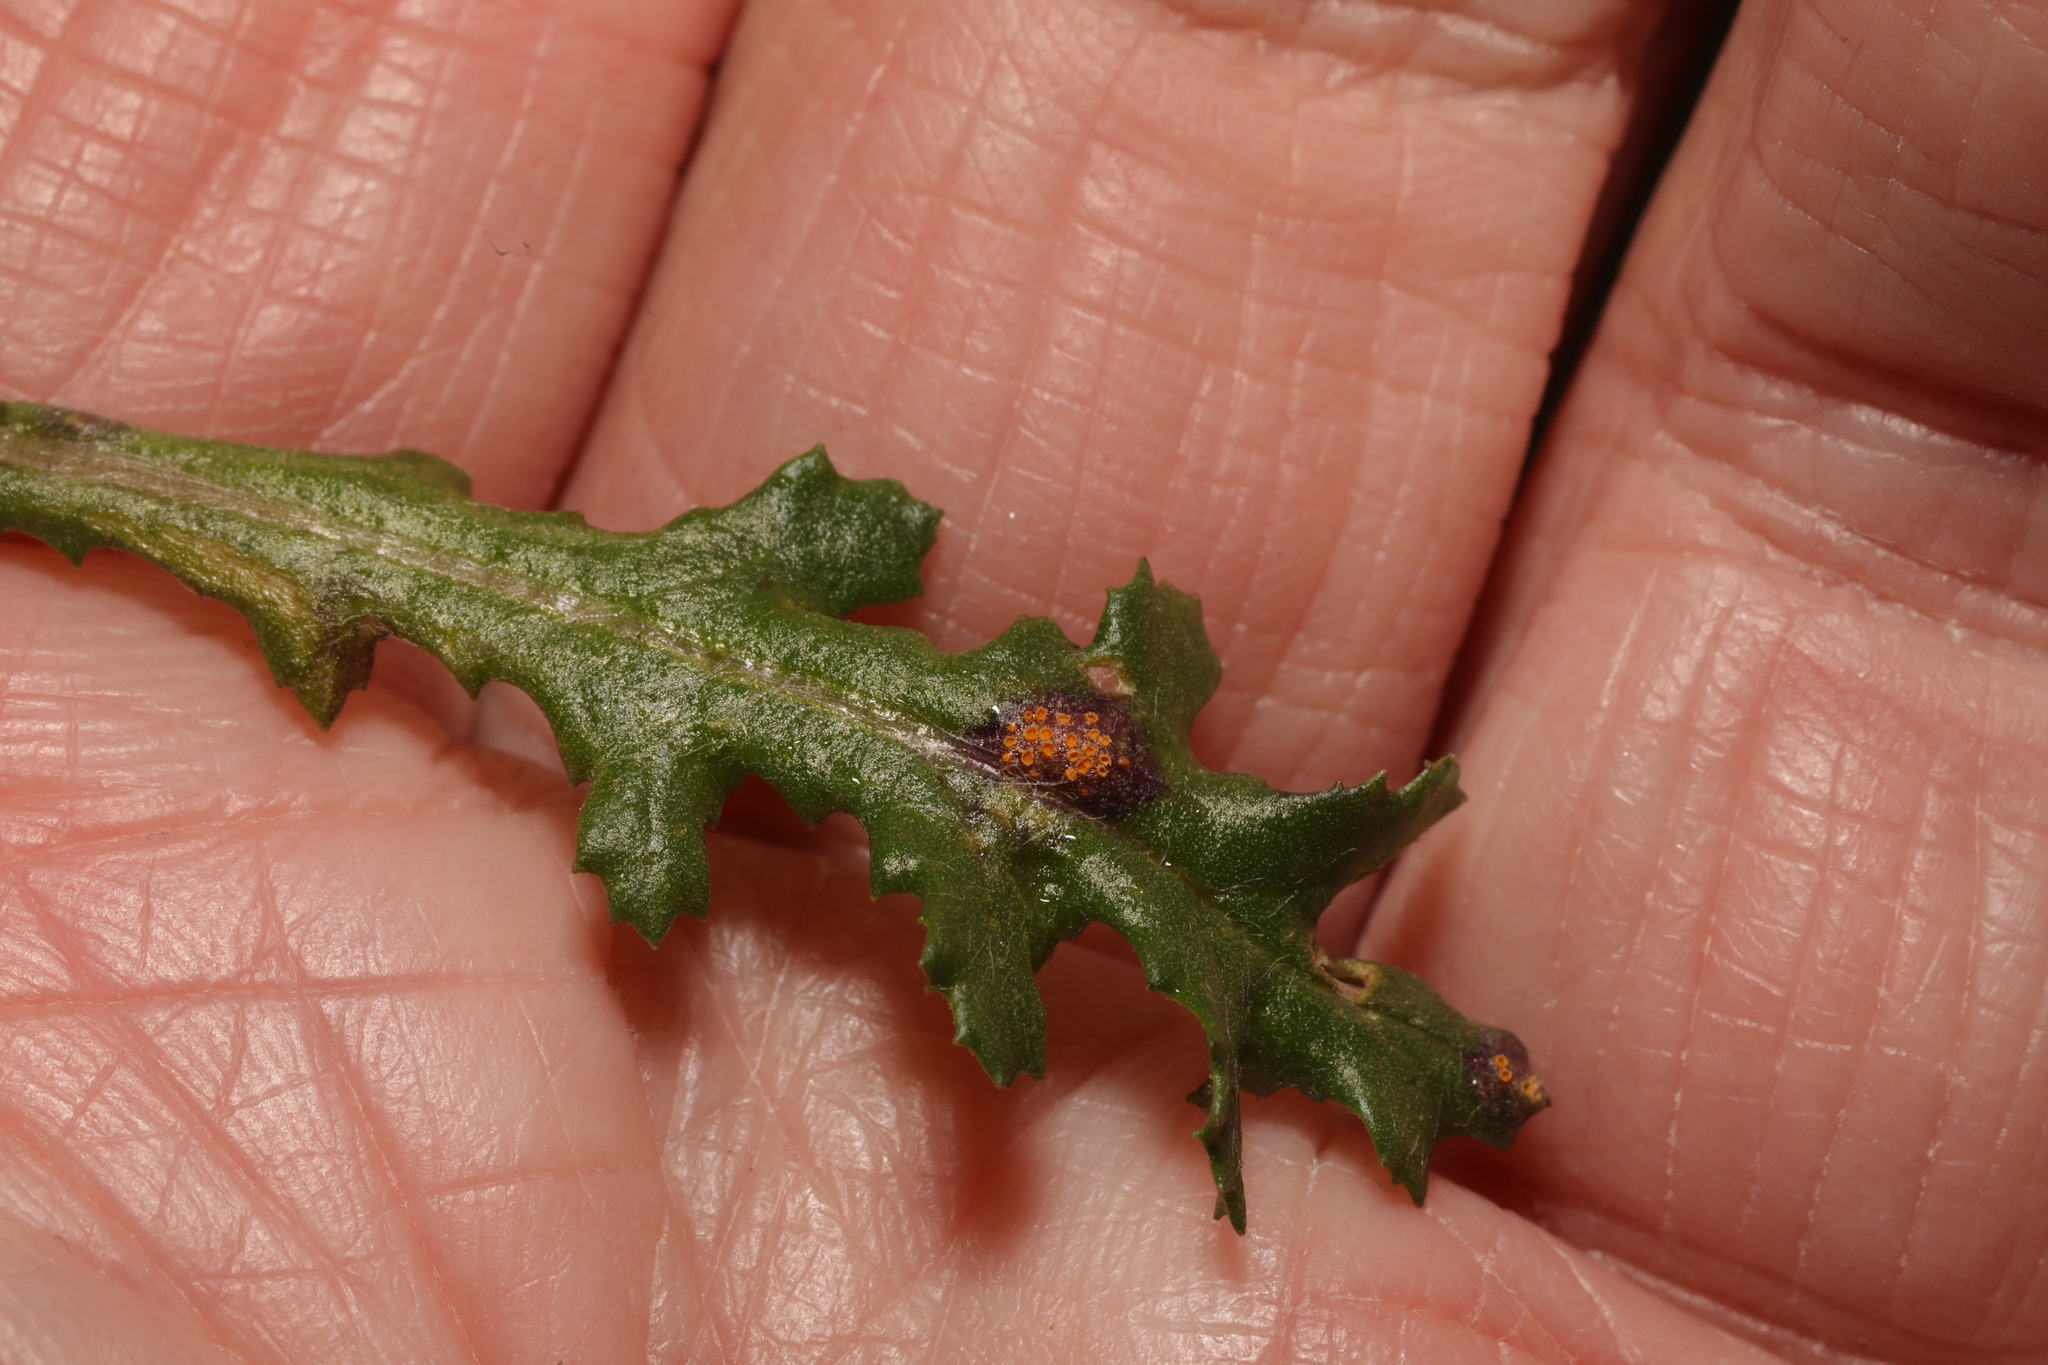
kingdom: Fungi
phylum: Basidiomycota
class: Pucciniomycetes
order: Pucciniales
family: Pucciniaceae
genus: Puccinia
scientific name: Puccinia lagenophorae
